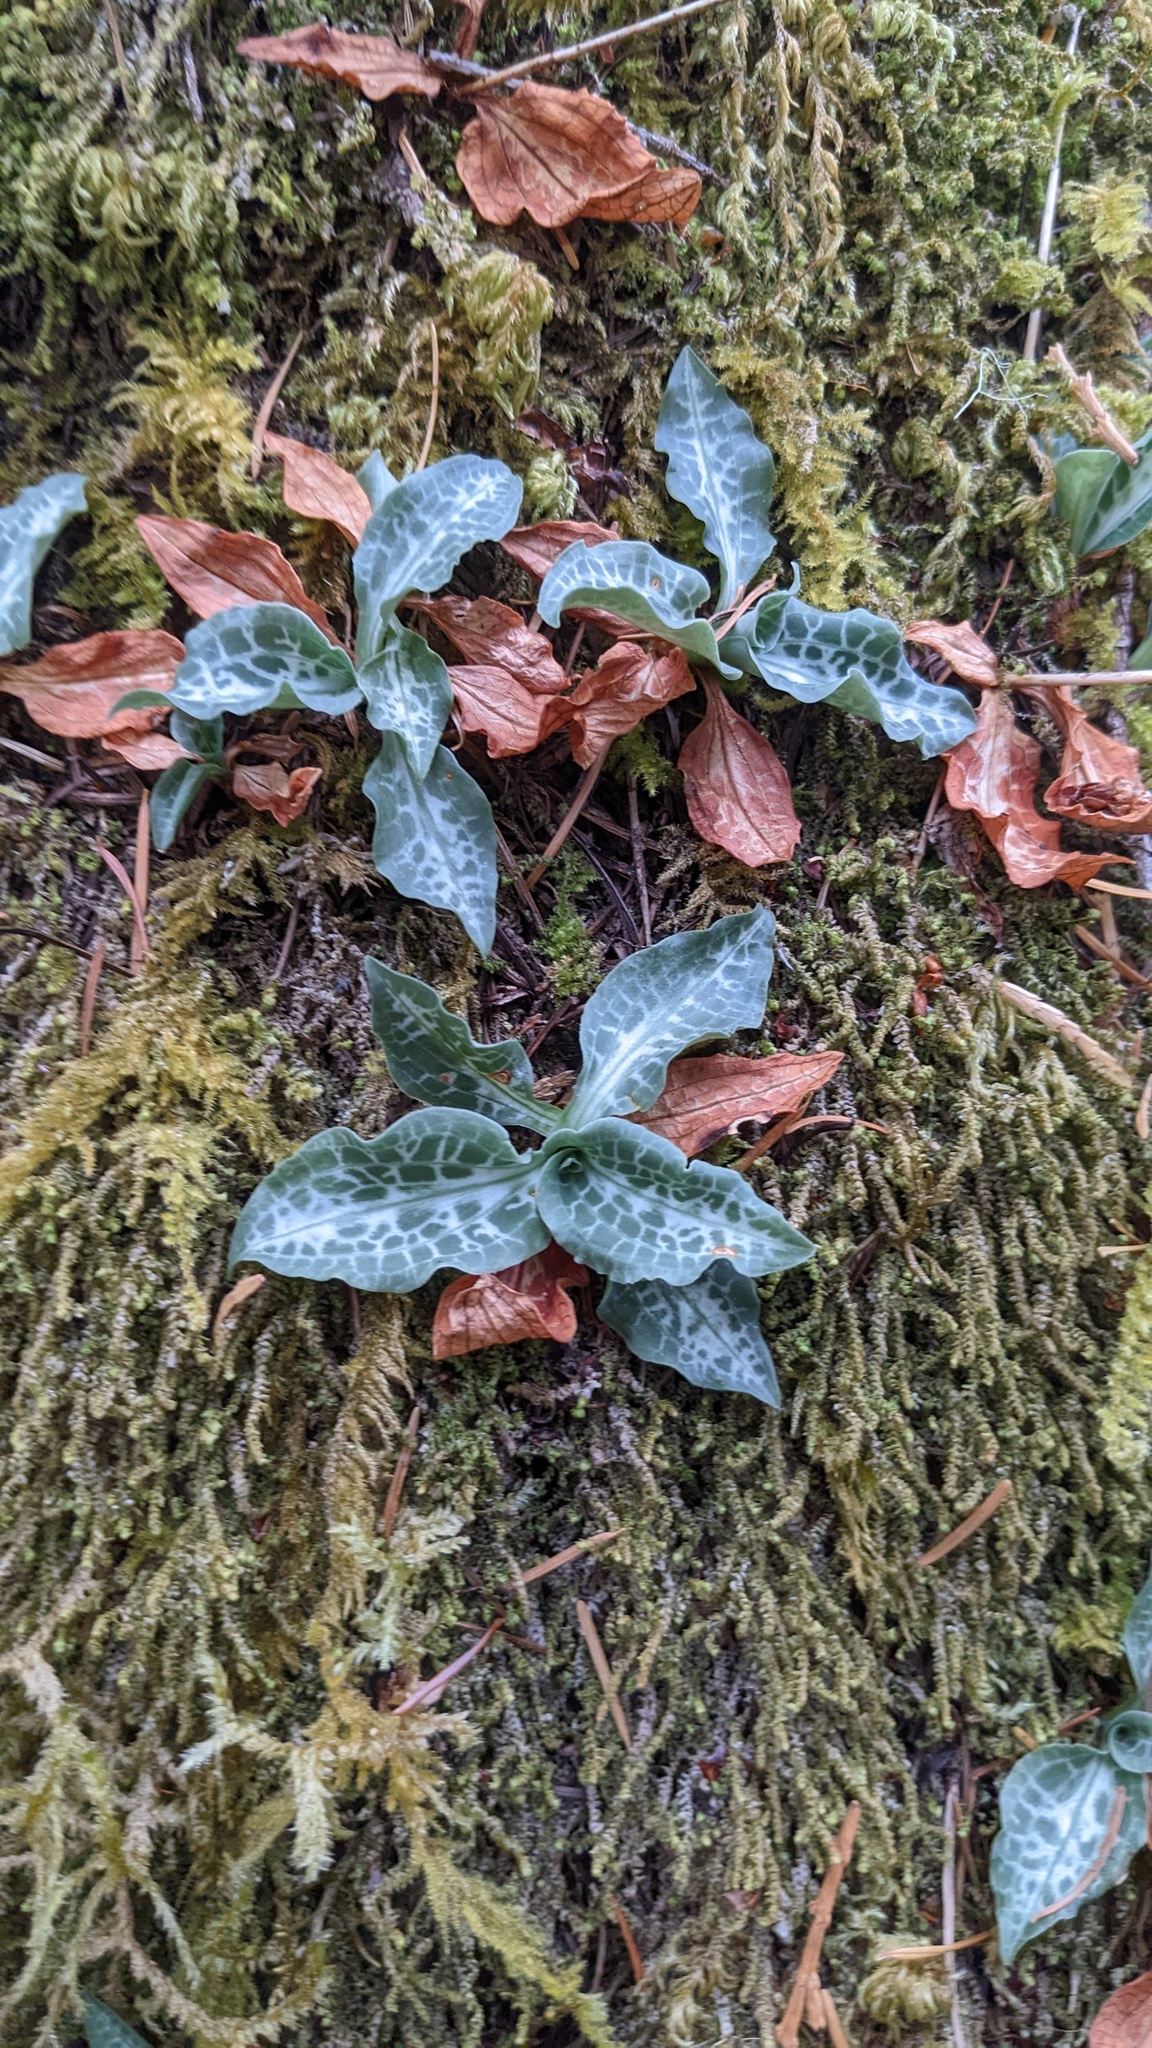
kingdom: Plantae
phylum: Tracheophyta
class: Liliopsida
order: Asparagales
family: Orchidaceae
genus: Goodyera
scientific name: Goodyera oblongifolia
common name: Giant rattlesnake-plantain
